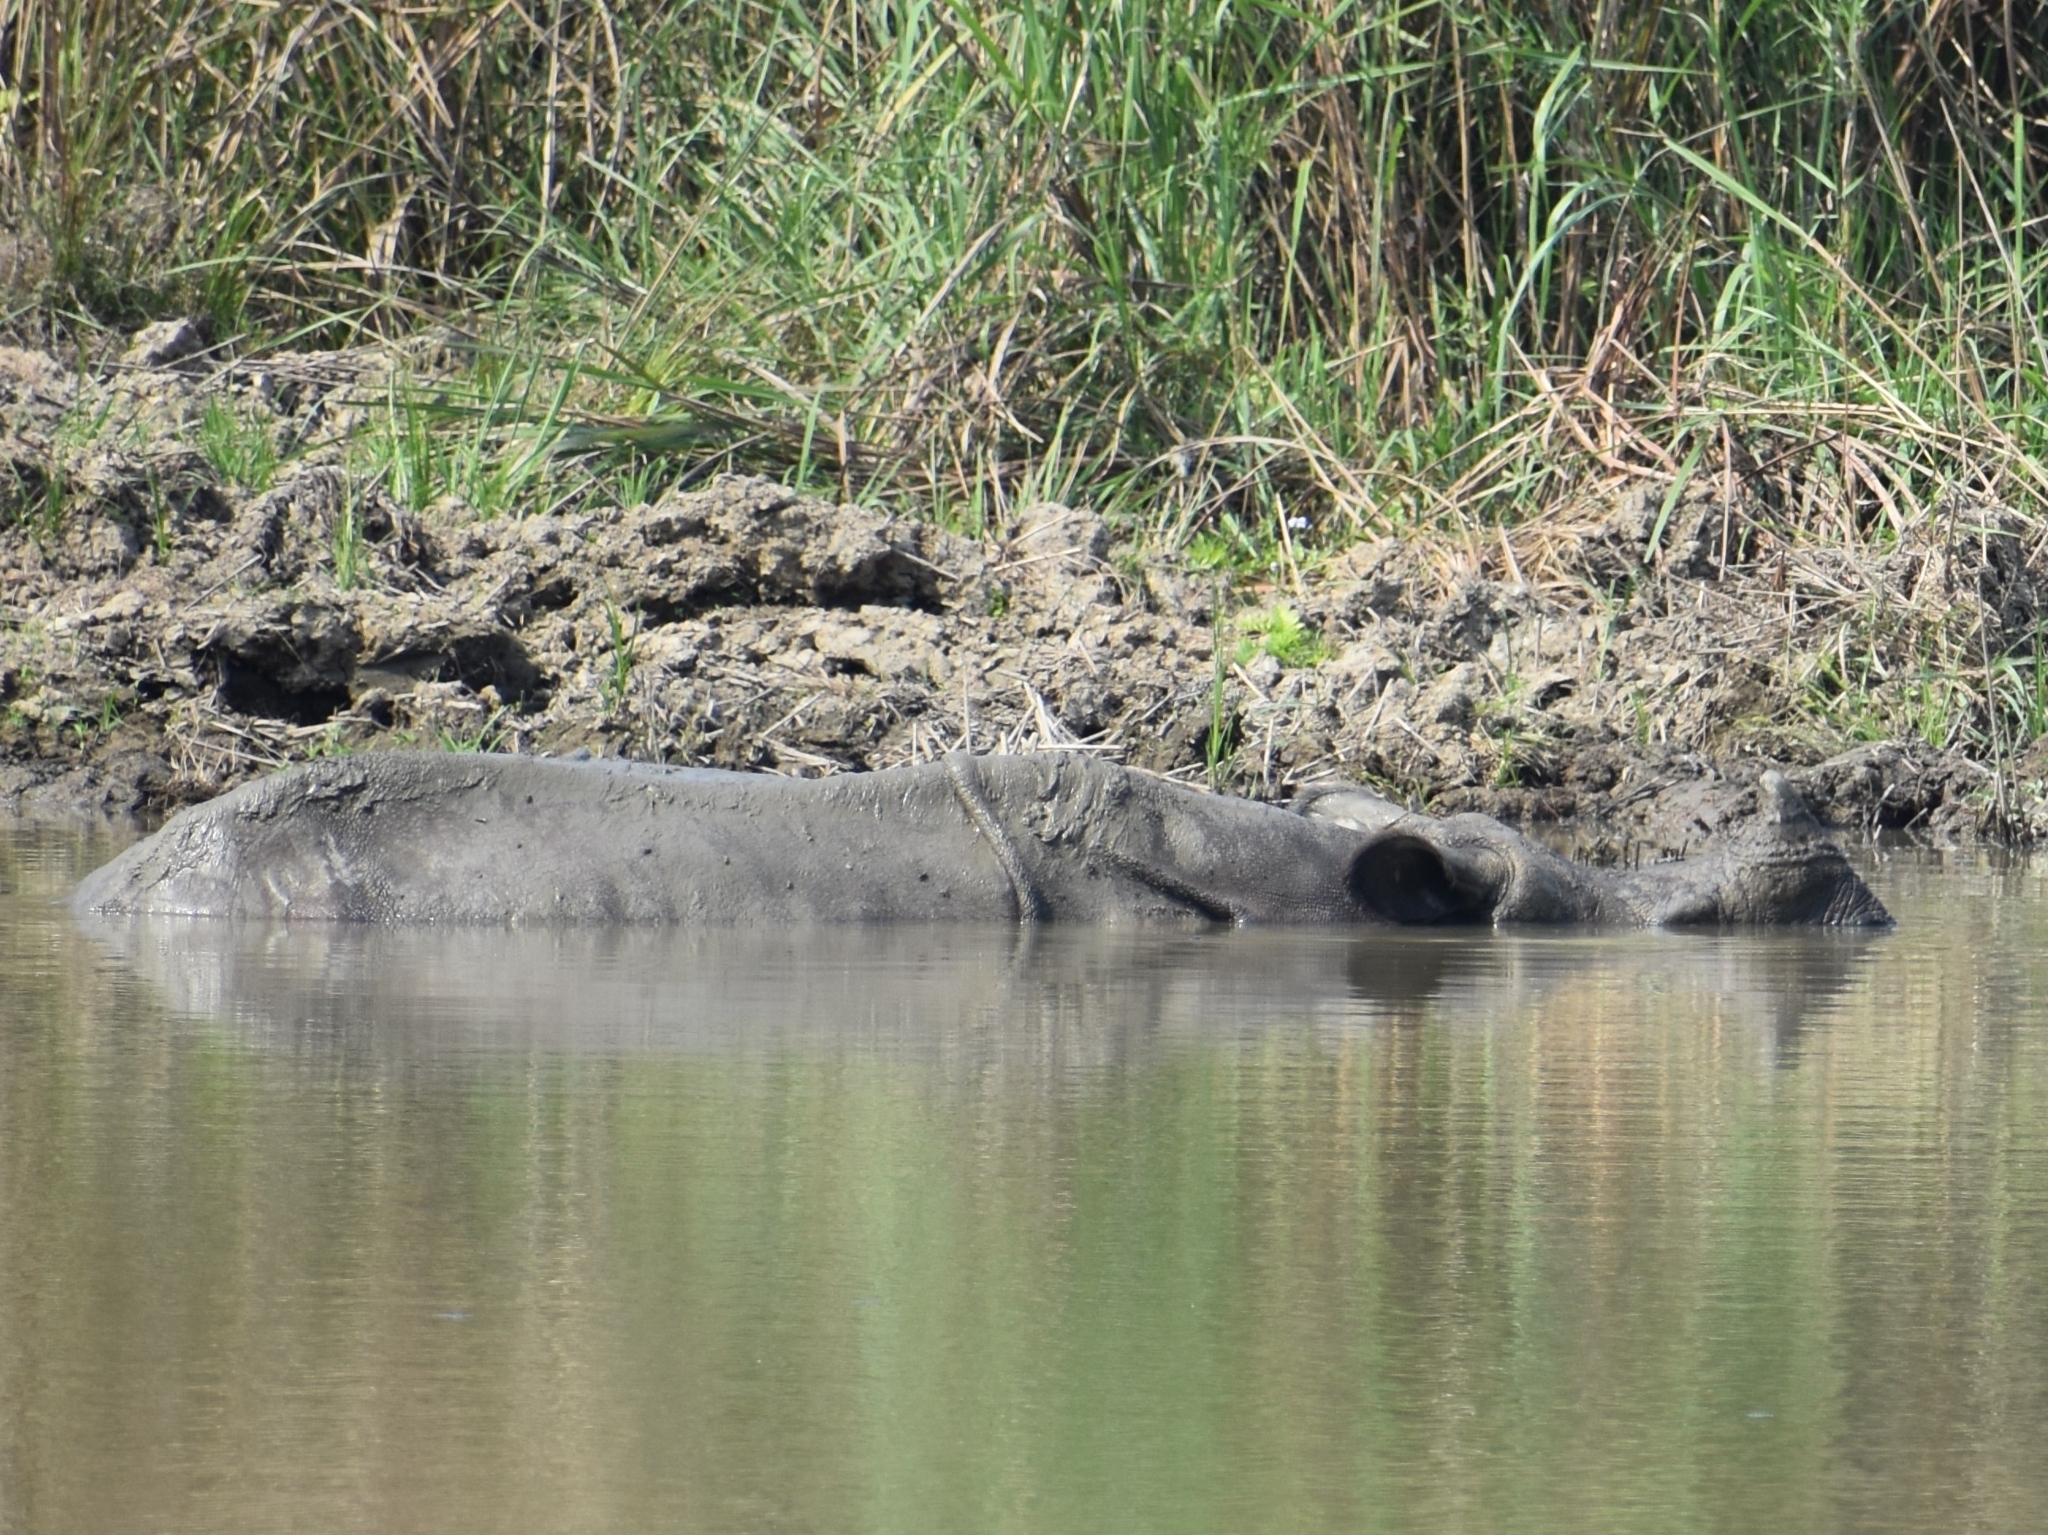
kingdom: Animalia
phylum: Chordata
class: Mammalia
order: Perissodactyla
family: Rhinocerotidae
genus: Rhinoceros
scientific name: Rhinoceros unicornis
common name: Indian rhinoceros
